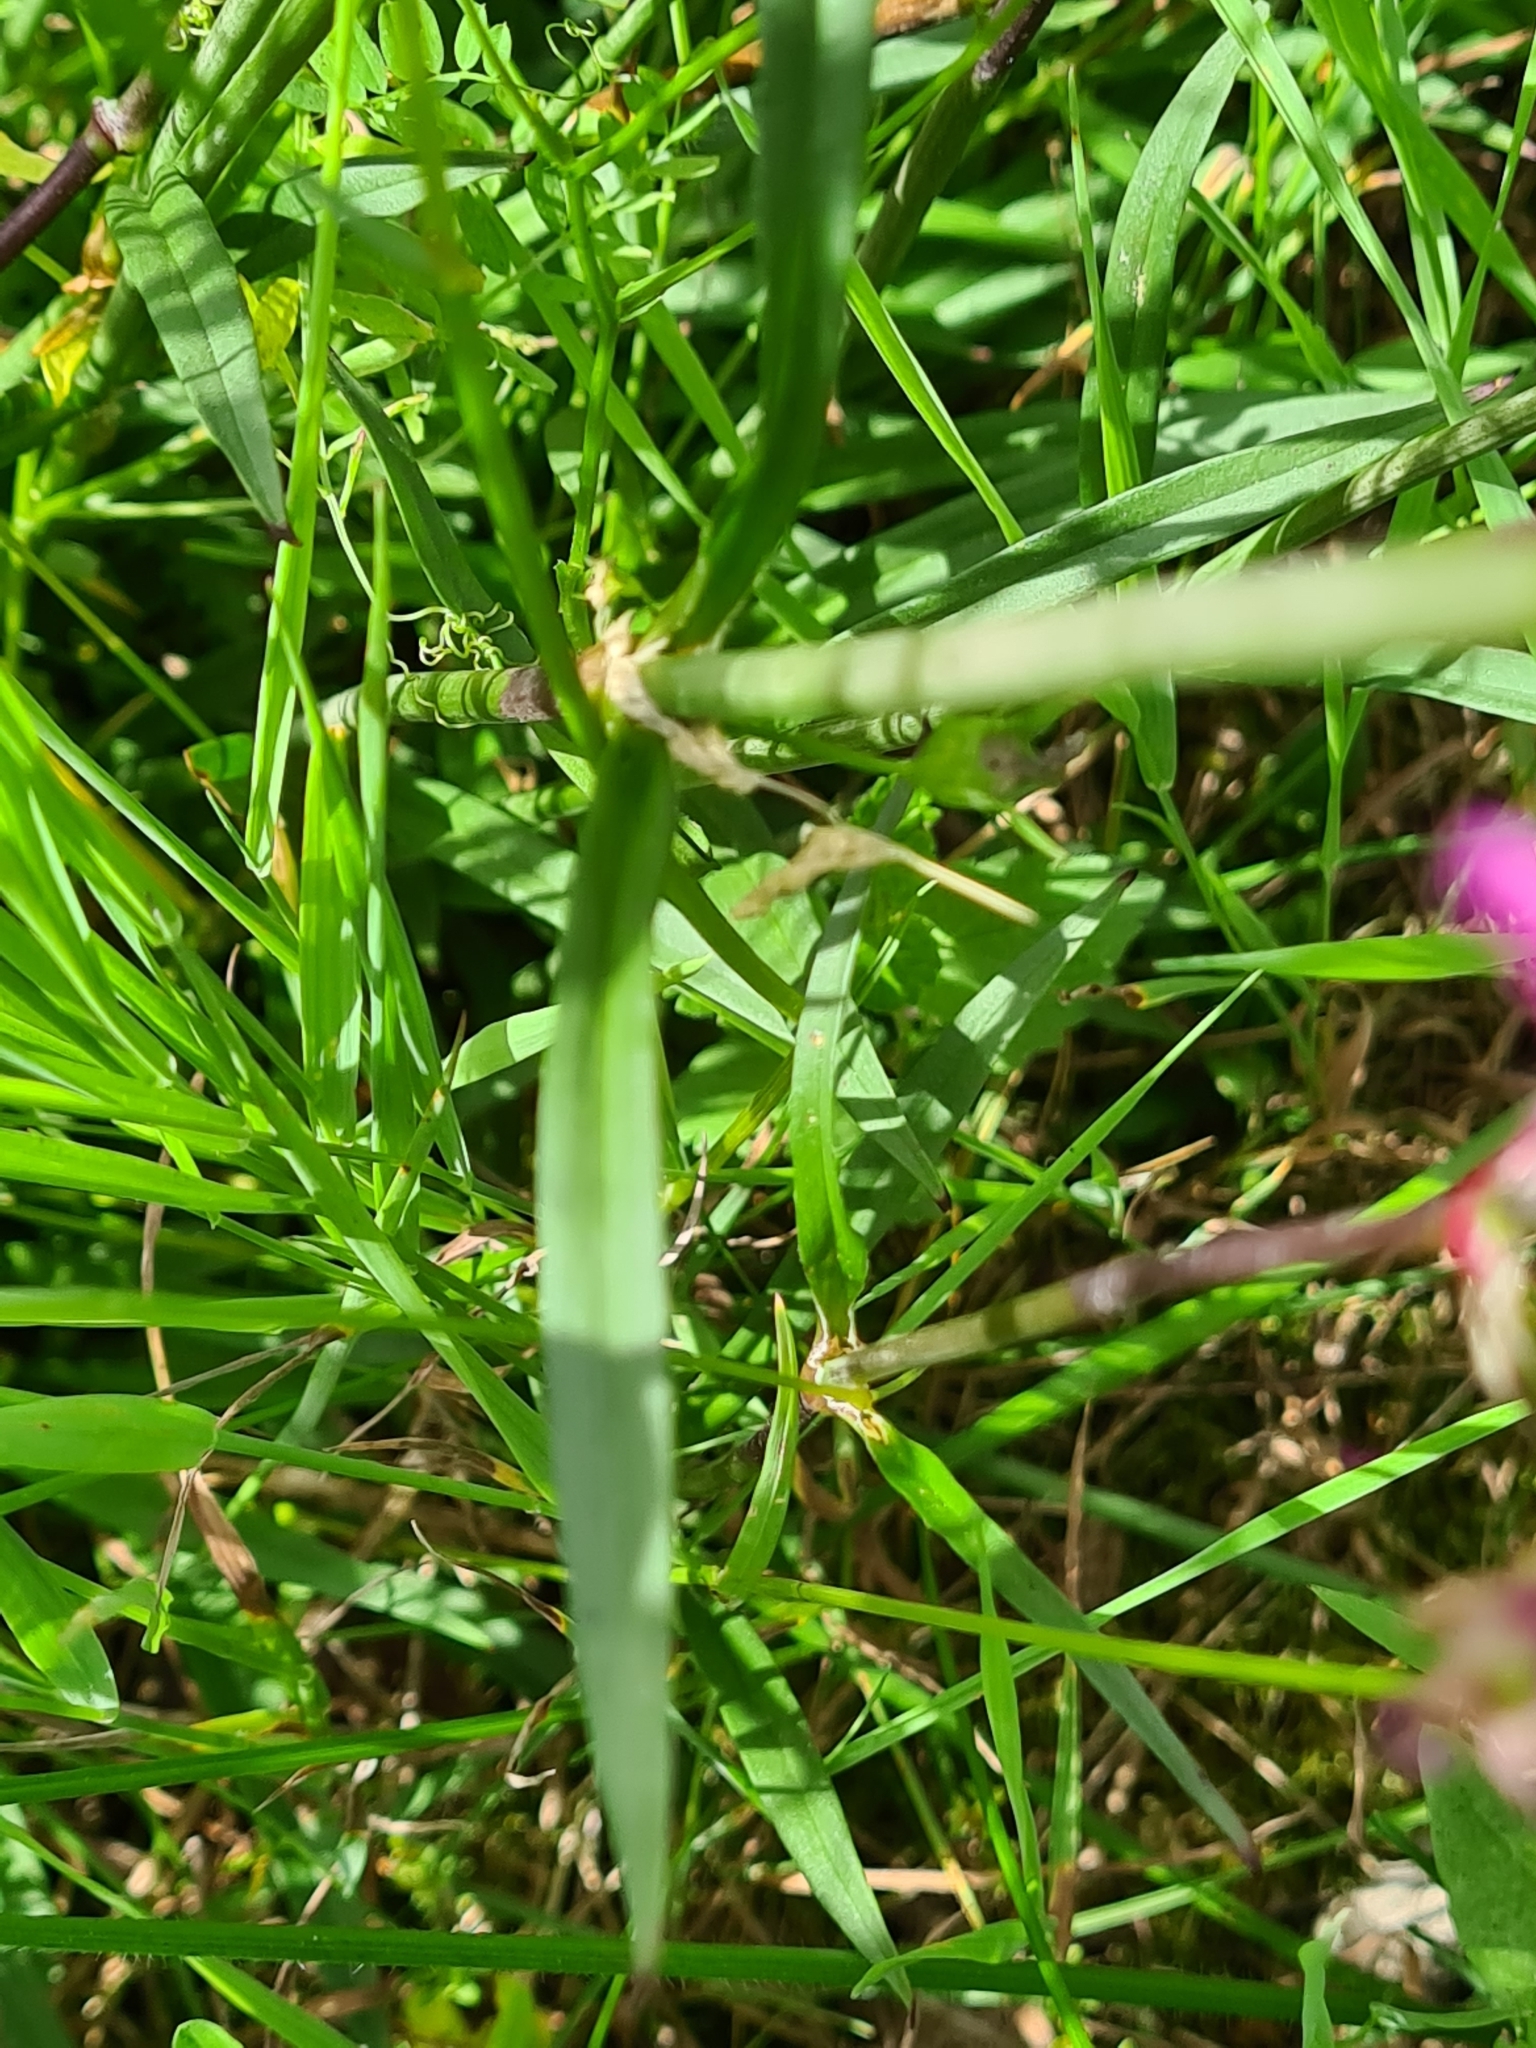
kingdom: Plantae
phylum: Tracheophyta
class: Magnoliopsida
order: Caryophyllales
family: Caryophyllaceae
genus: Viscaria
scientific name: Viscaria vulgaris
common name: Clammy campion
